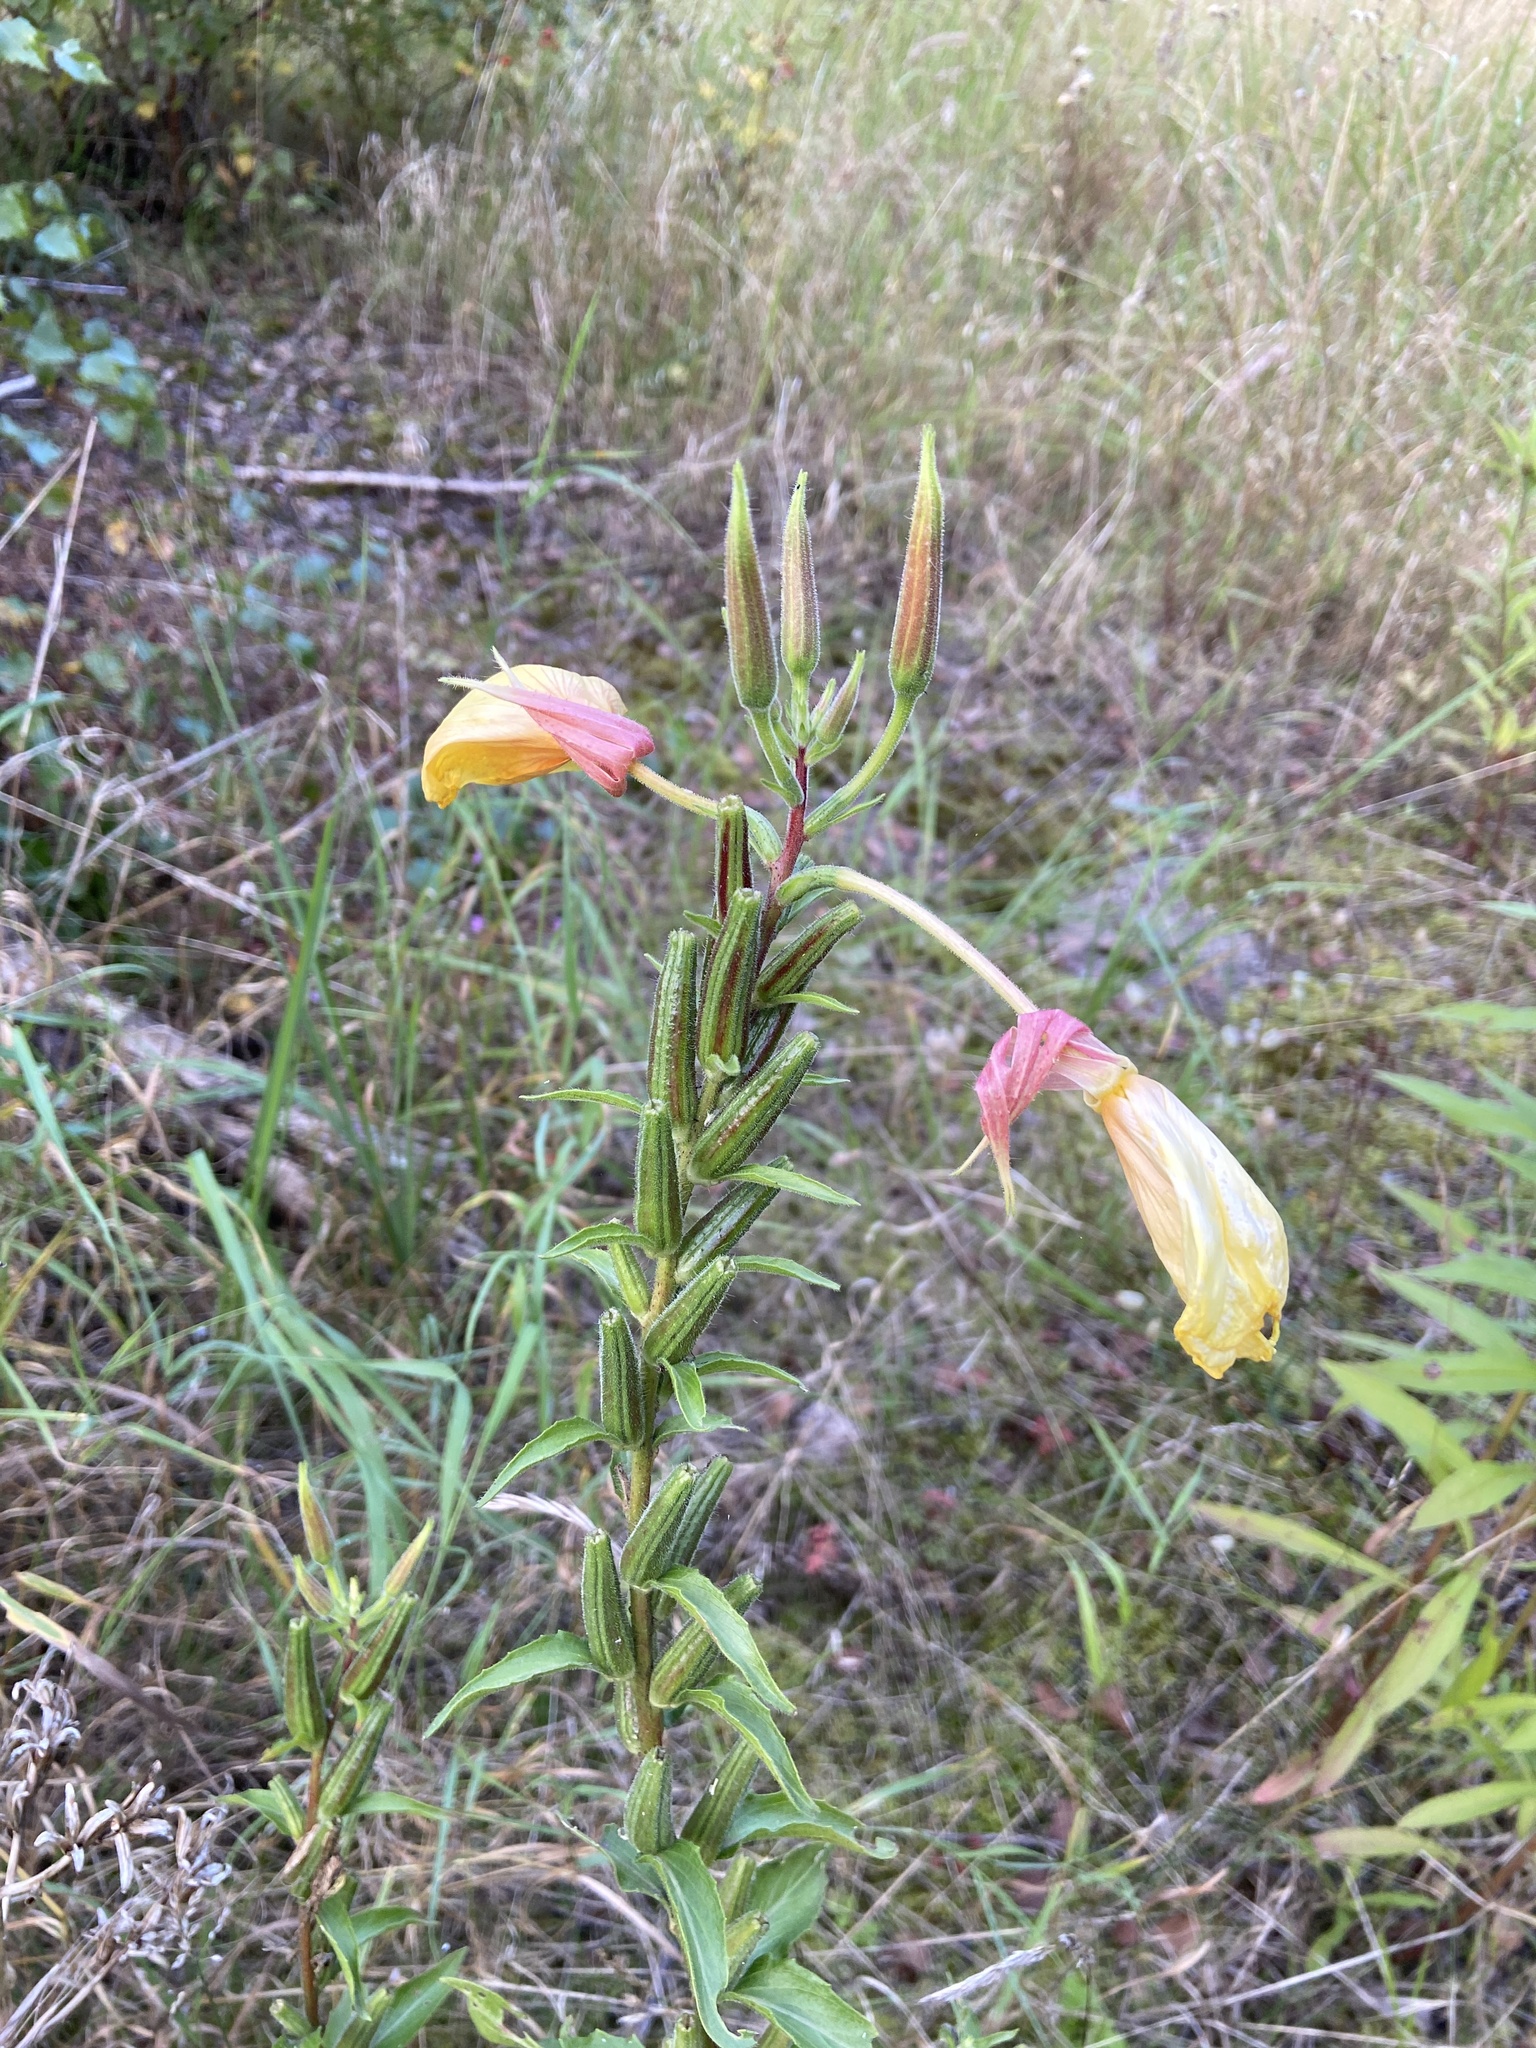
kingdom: Plantae
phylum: Tracheophyta
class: Magnoliopsida
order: Myrtales
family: Onagraceae
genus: Oenothera
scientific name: Oenothera glazioviana
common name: Large-flowered evening-primrose
